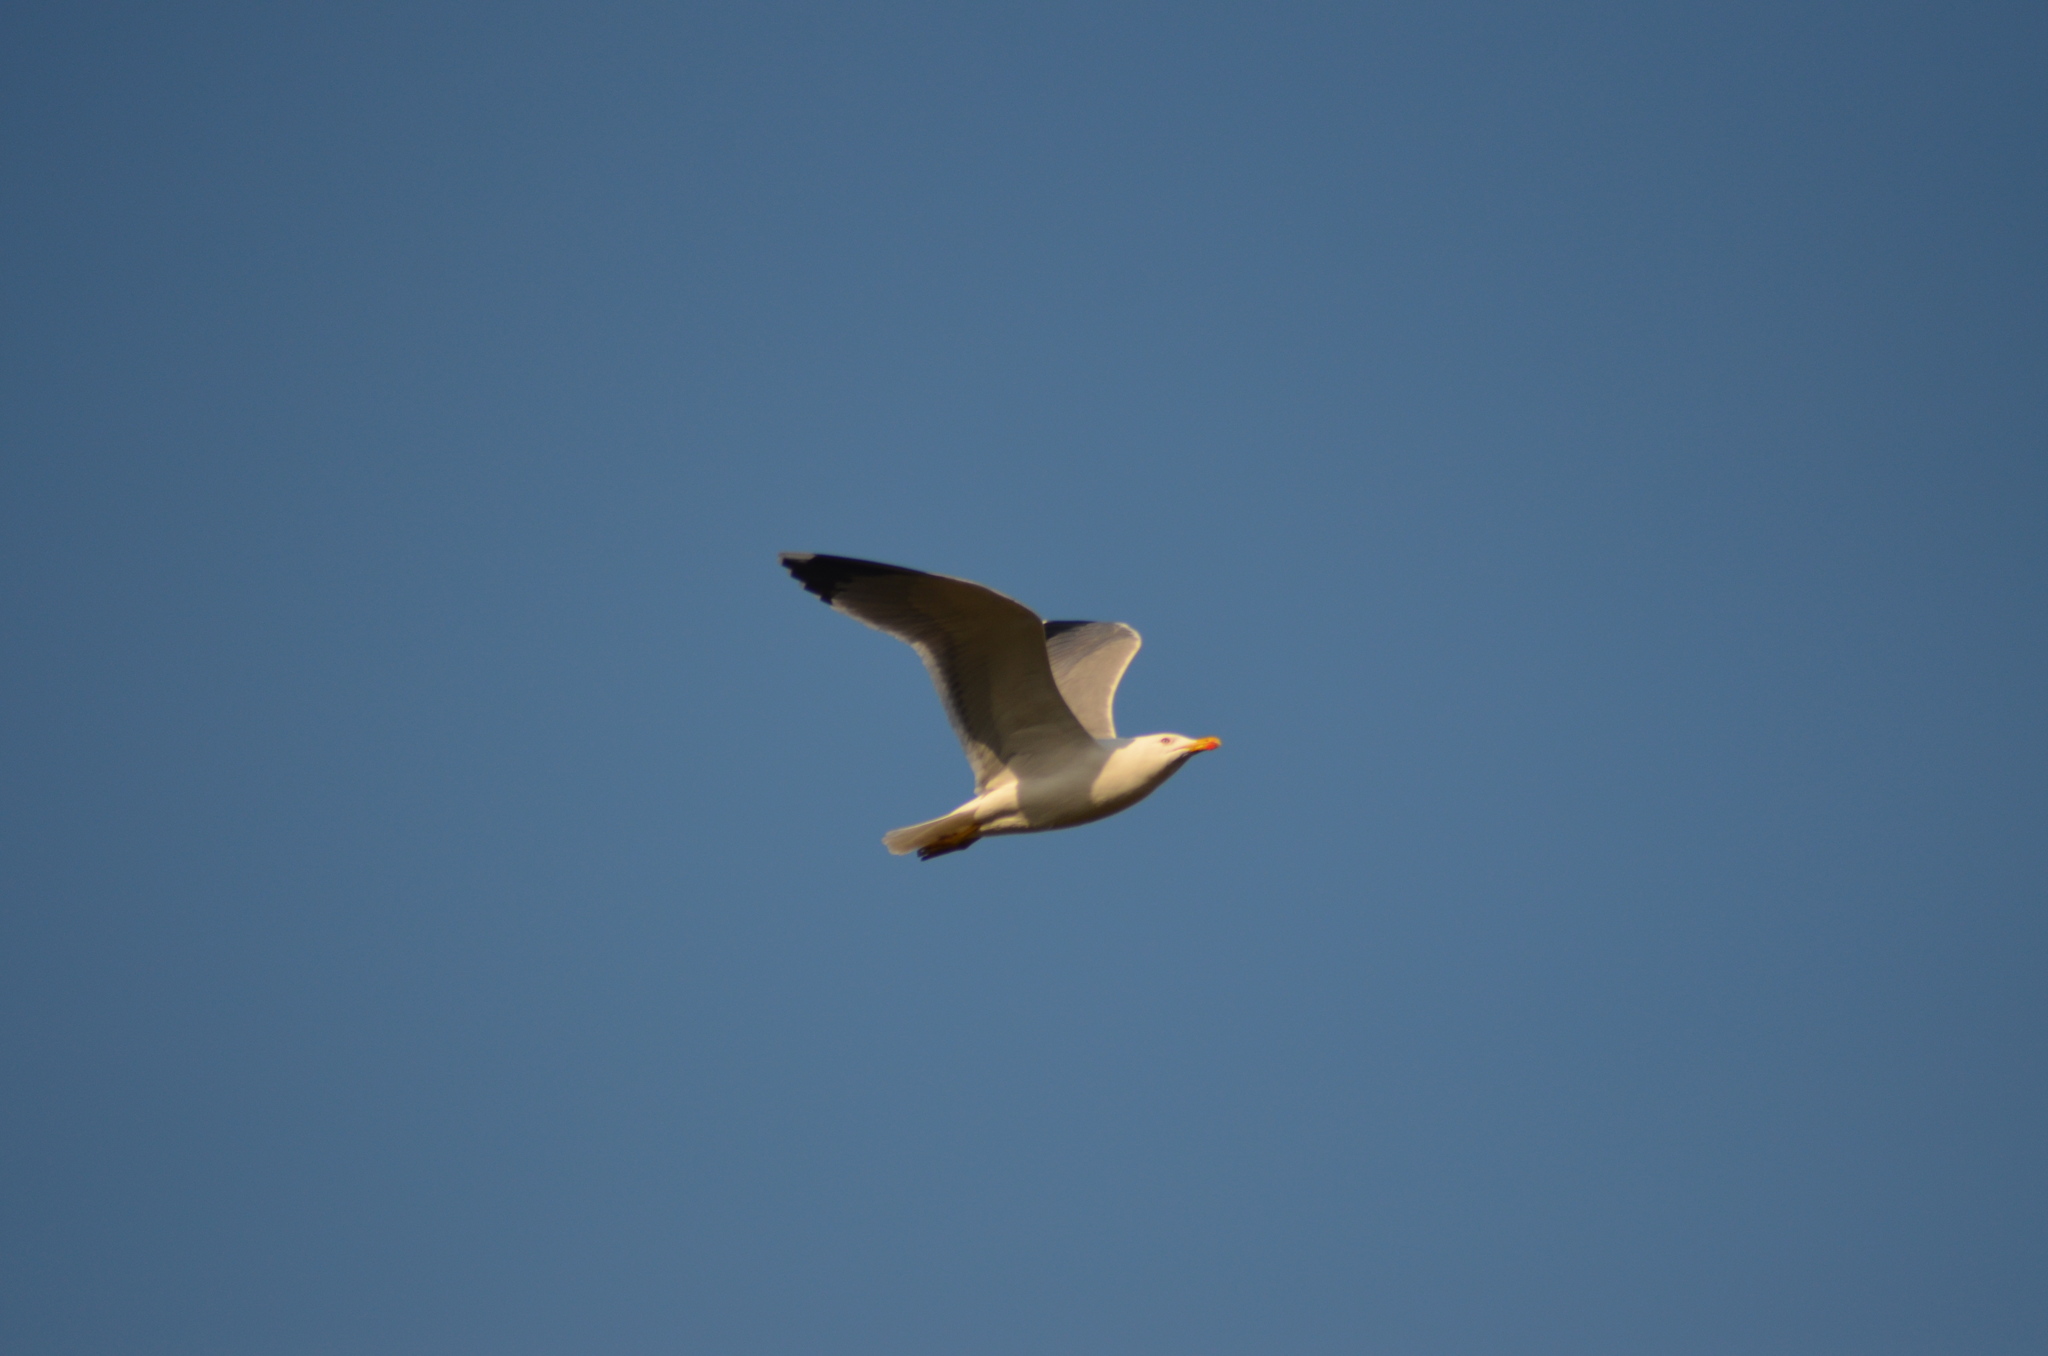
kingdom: Animalia
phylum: Chordata
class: Aves
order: Charadriiformes
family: Laridae
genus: Larus
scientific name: Larus michahellis
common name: Yellow-legged gull
